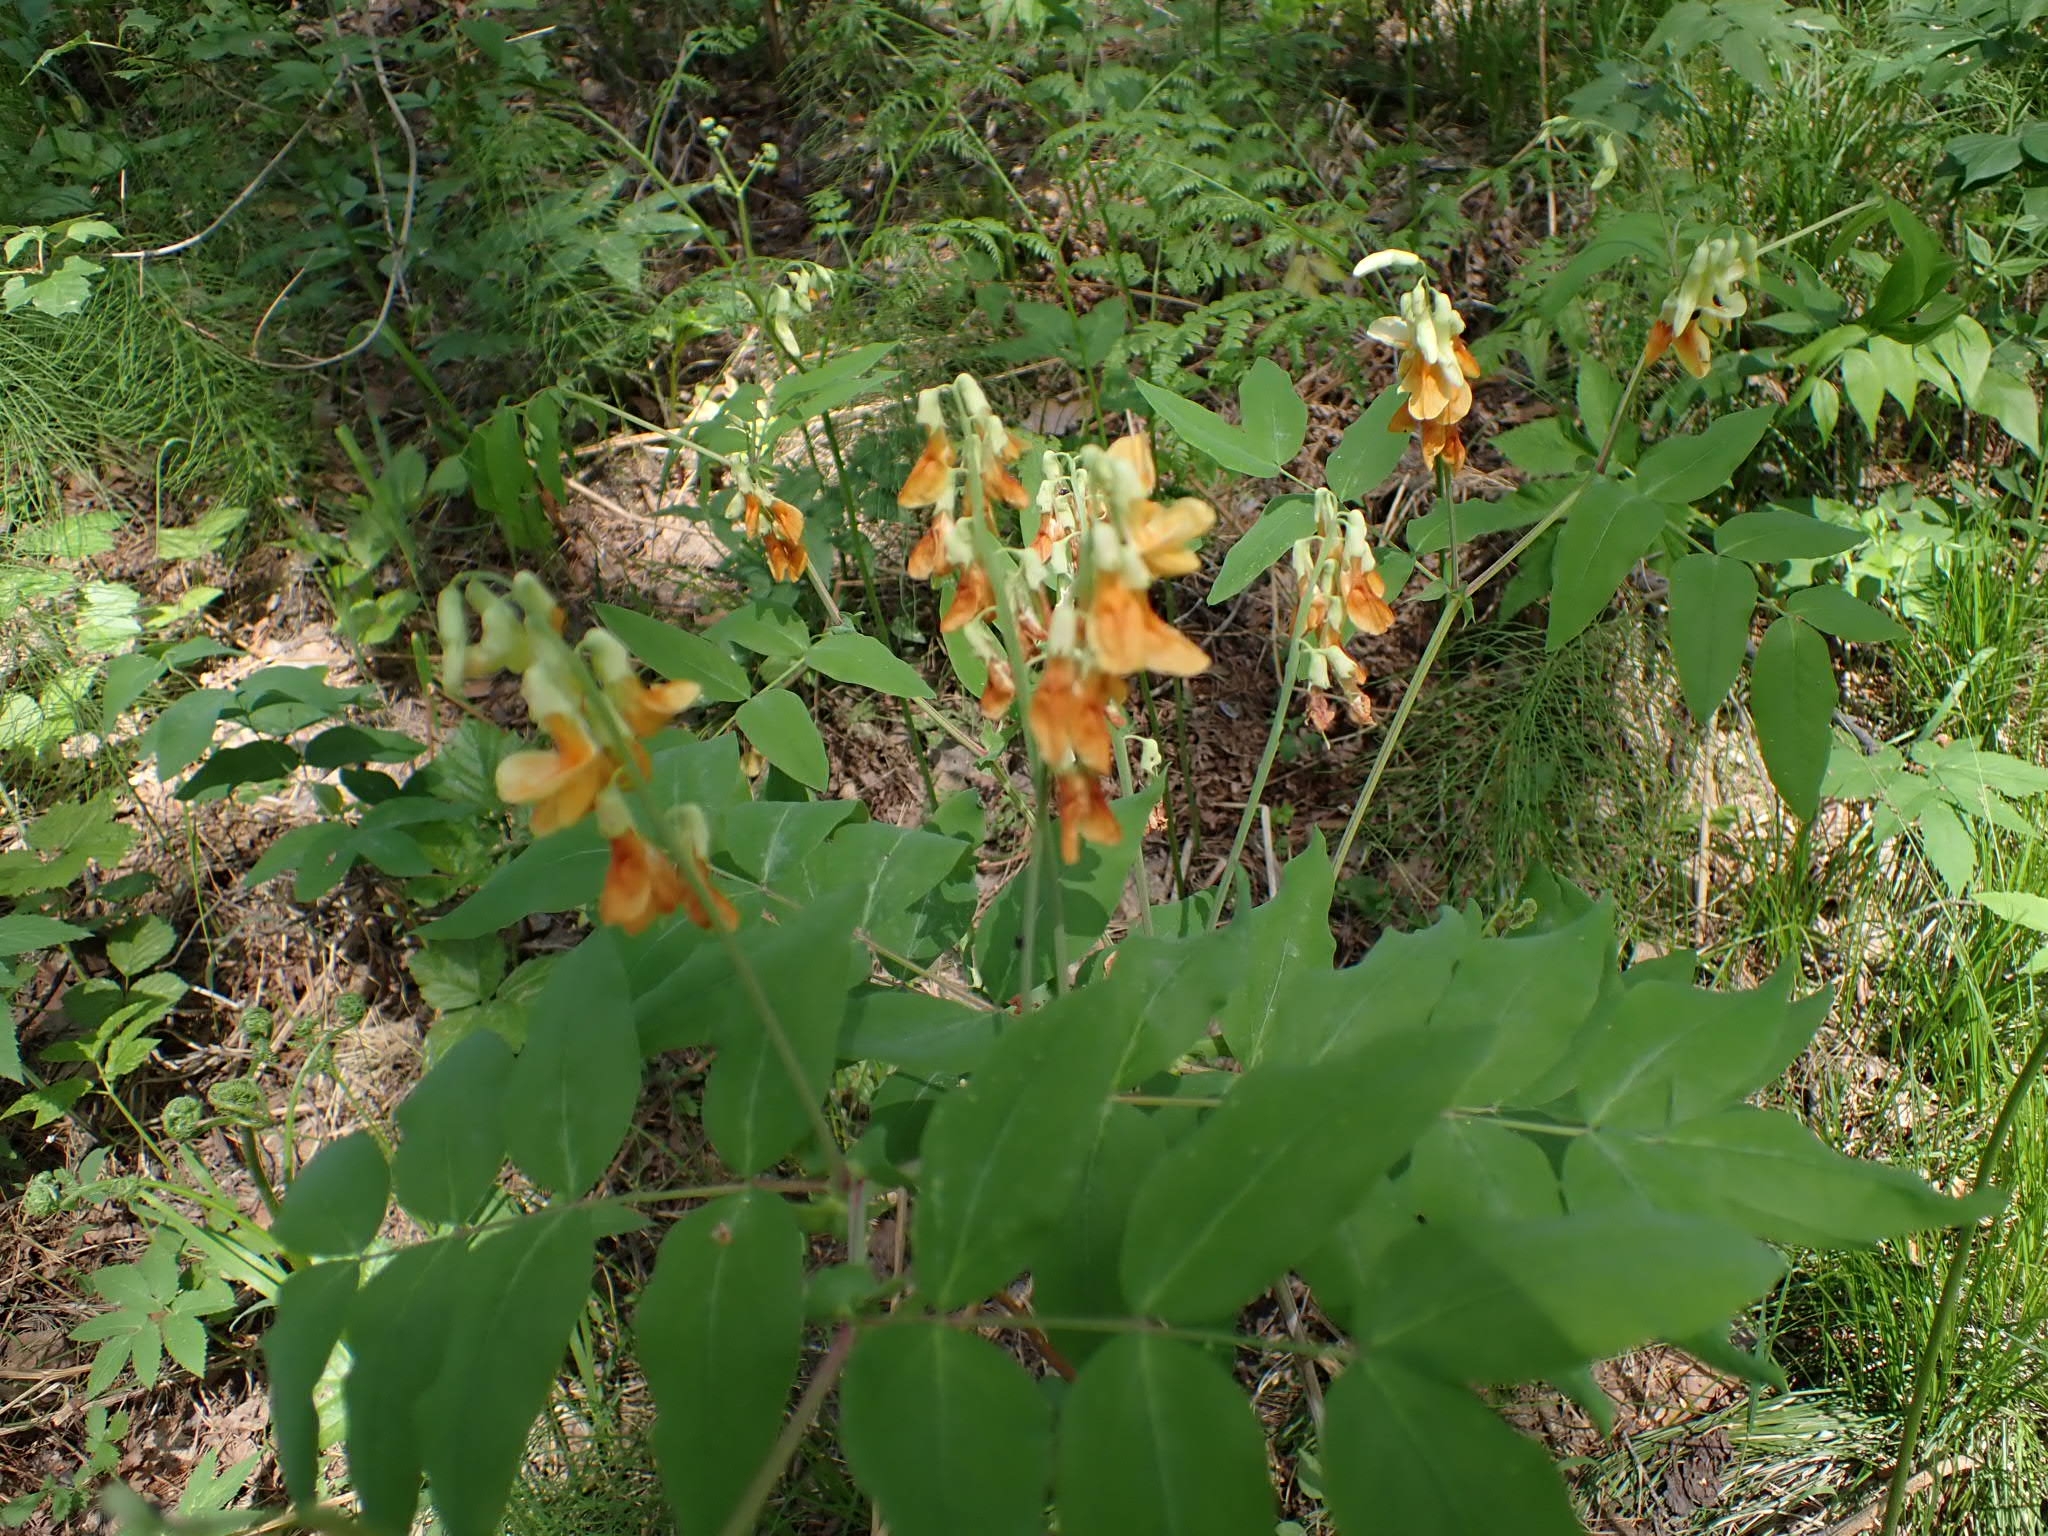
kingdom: Plantae
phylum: Tracheophyta
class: Magnoliopsida
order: Fabales
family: Fabaceae
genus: Lathyrus
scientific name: Lathyrus gmelinii
